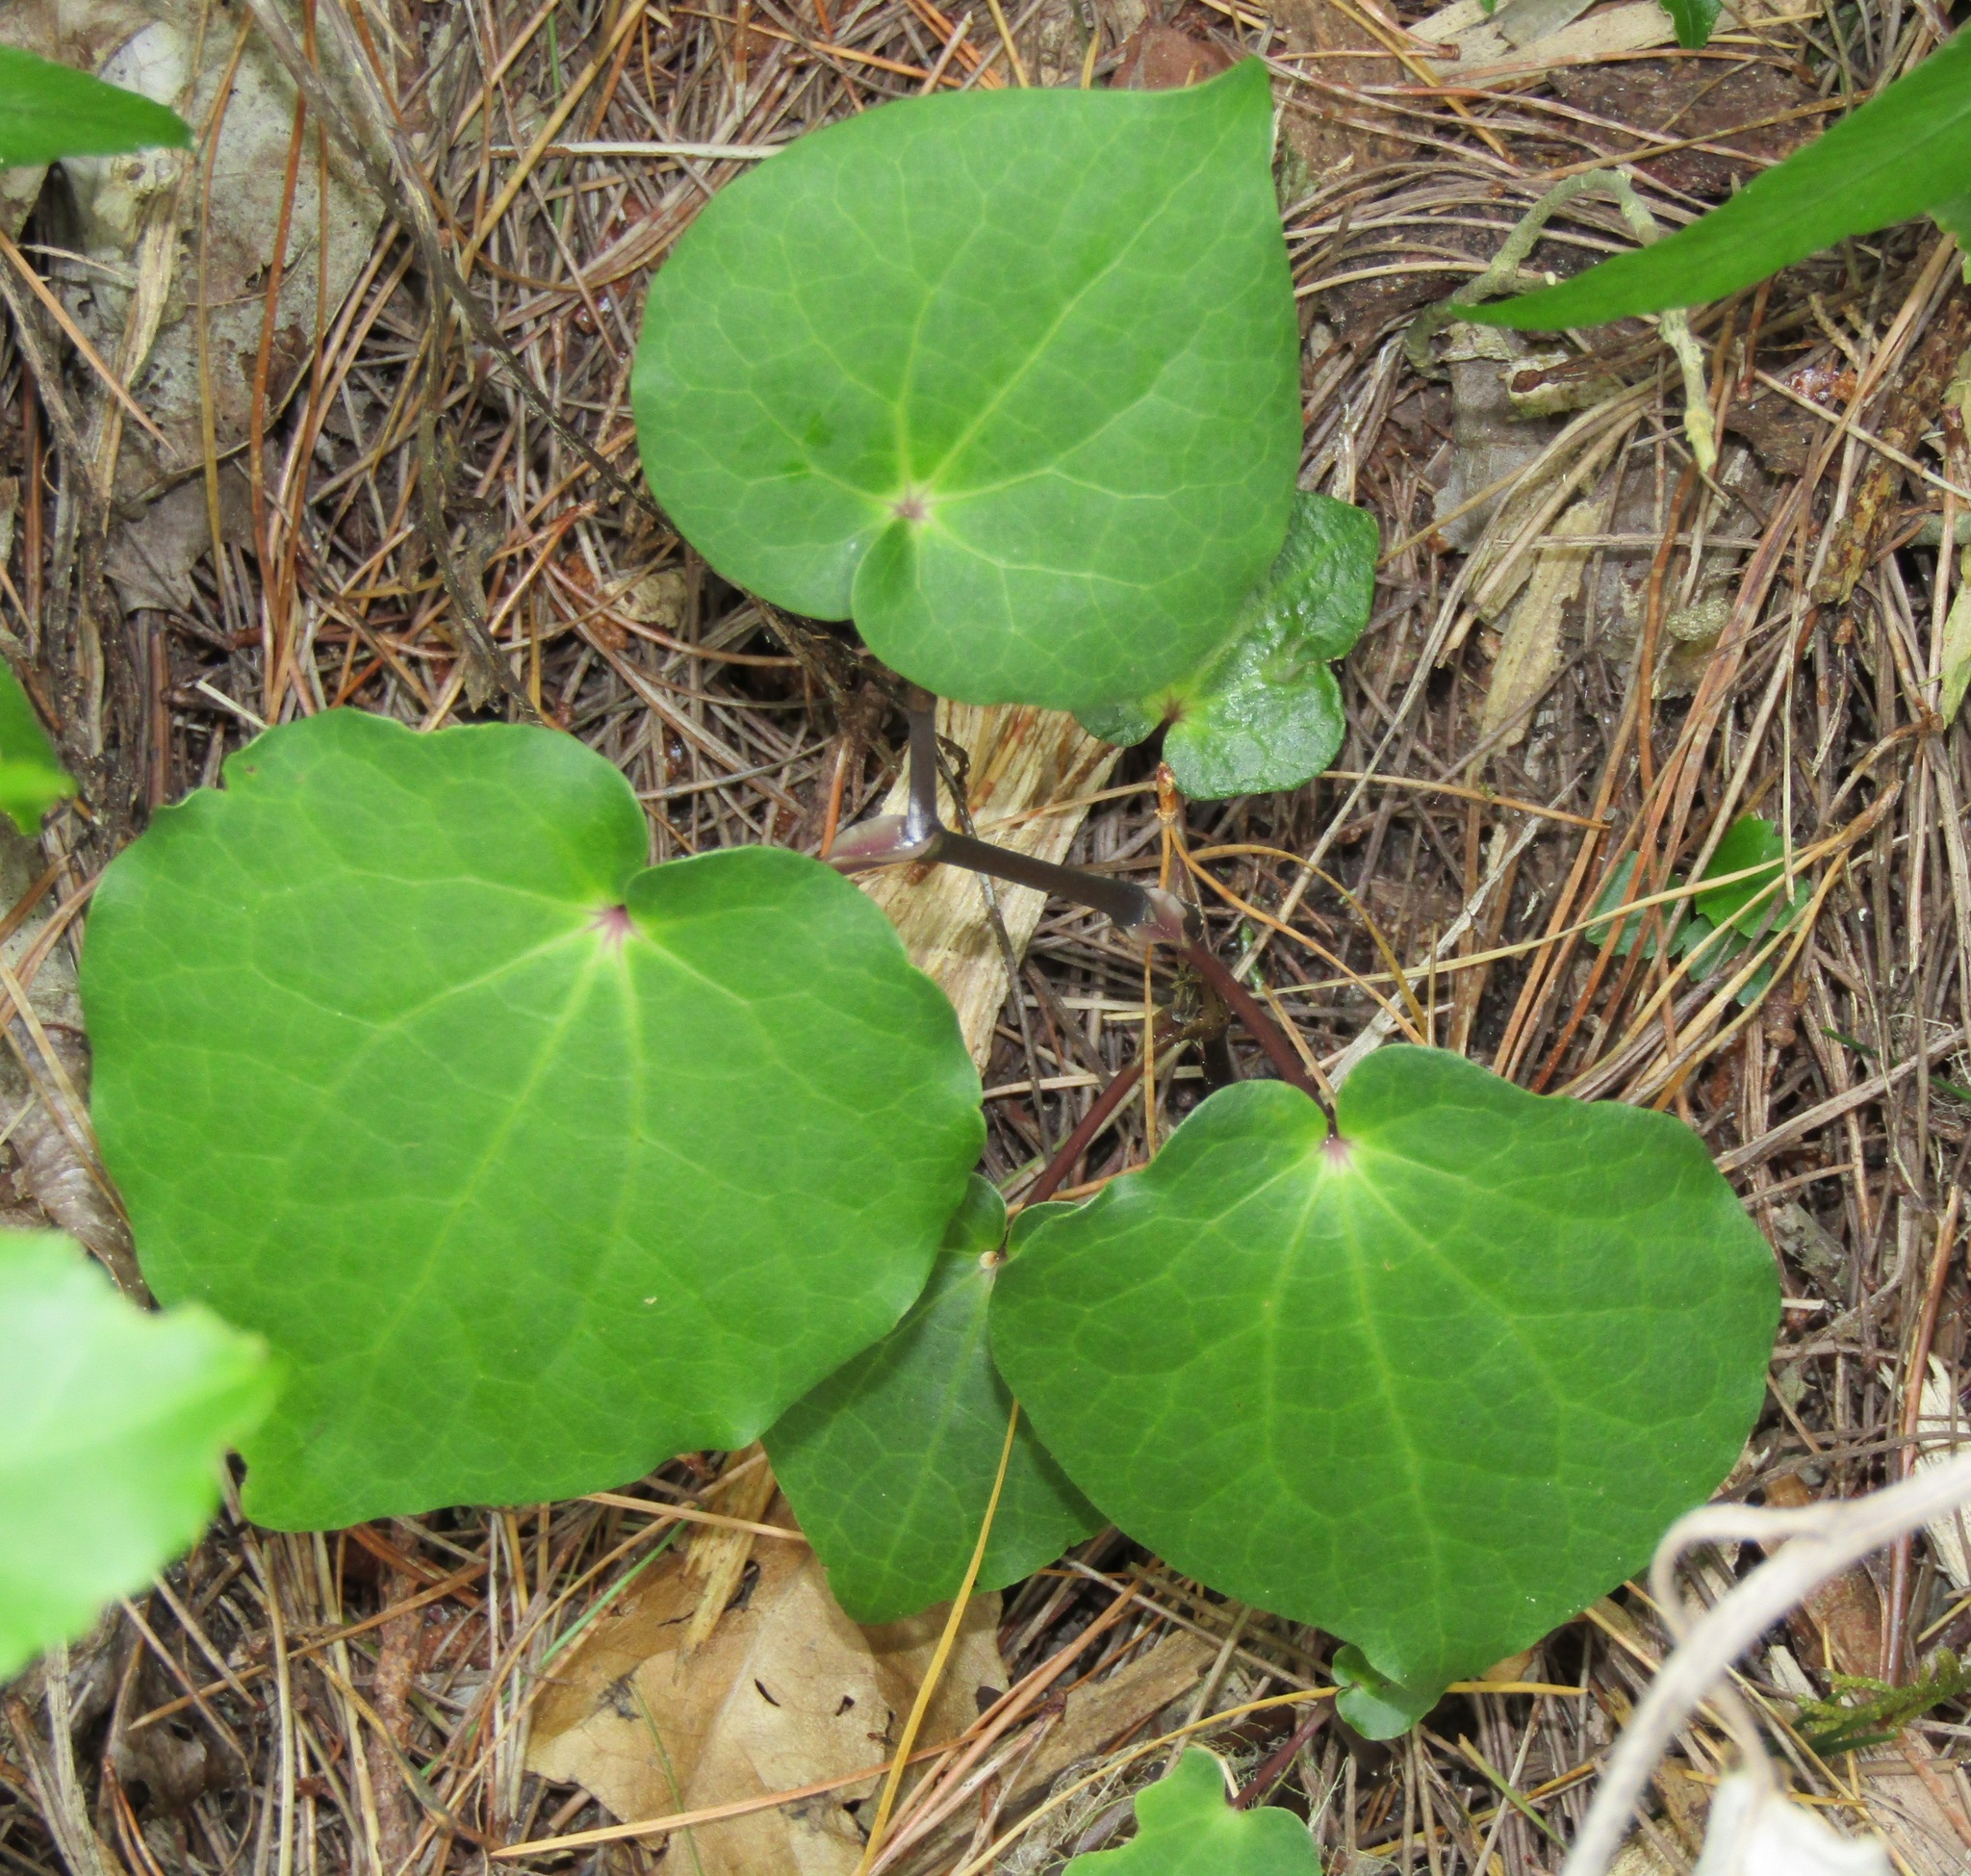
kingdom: Plantae
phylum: Tracheophyta
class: Magnoliopsida
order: Piperales
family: Piperaceae
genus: Macropiper
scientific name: Macropiper excelsum
